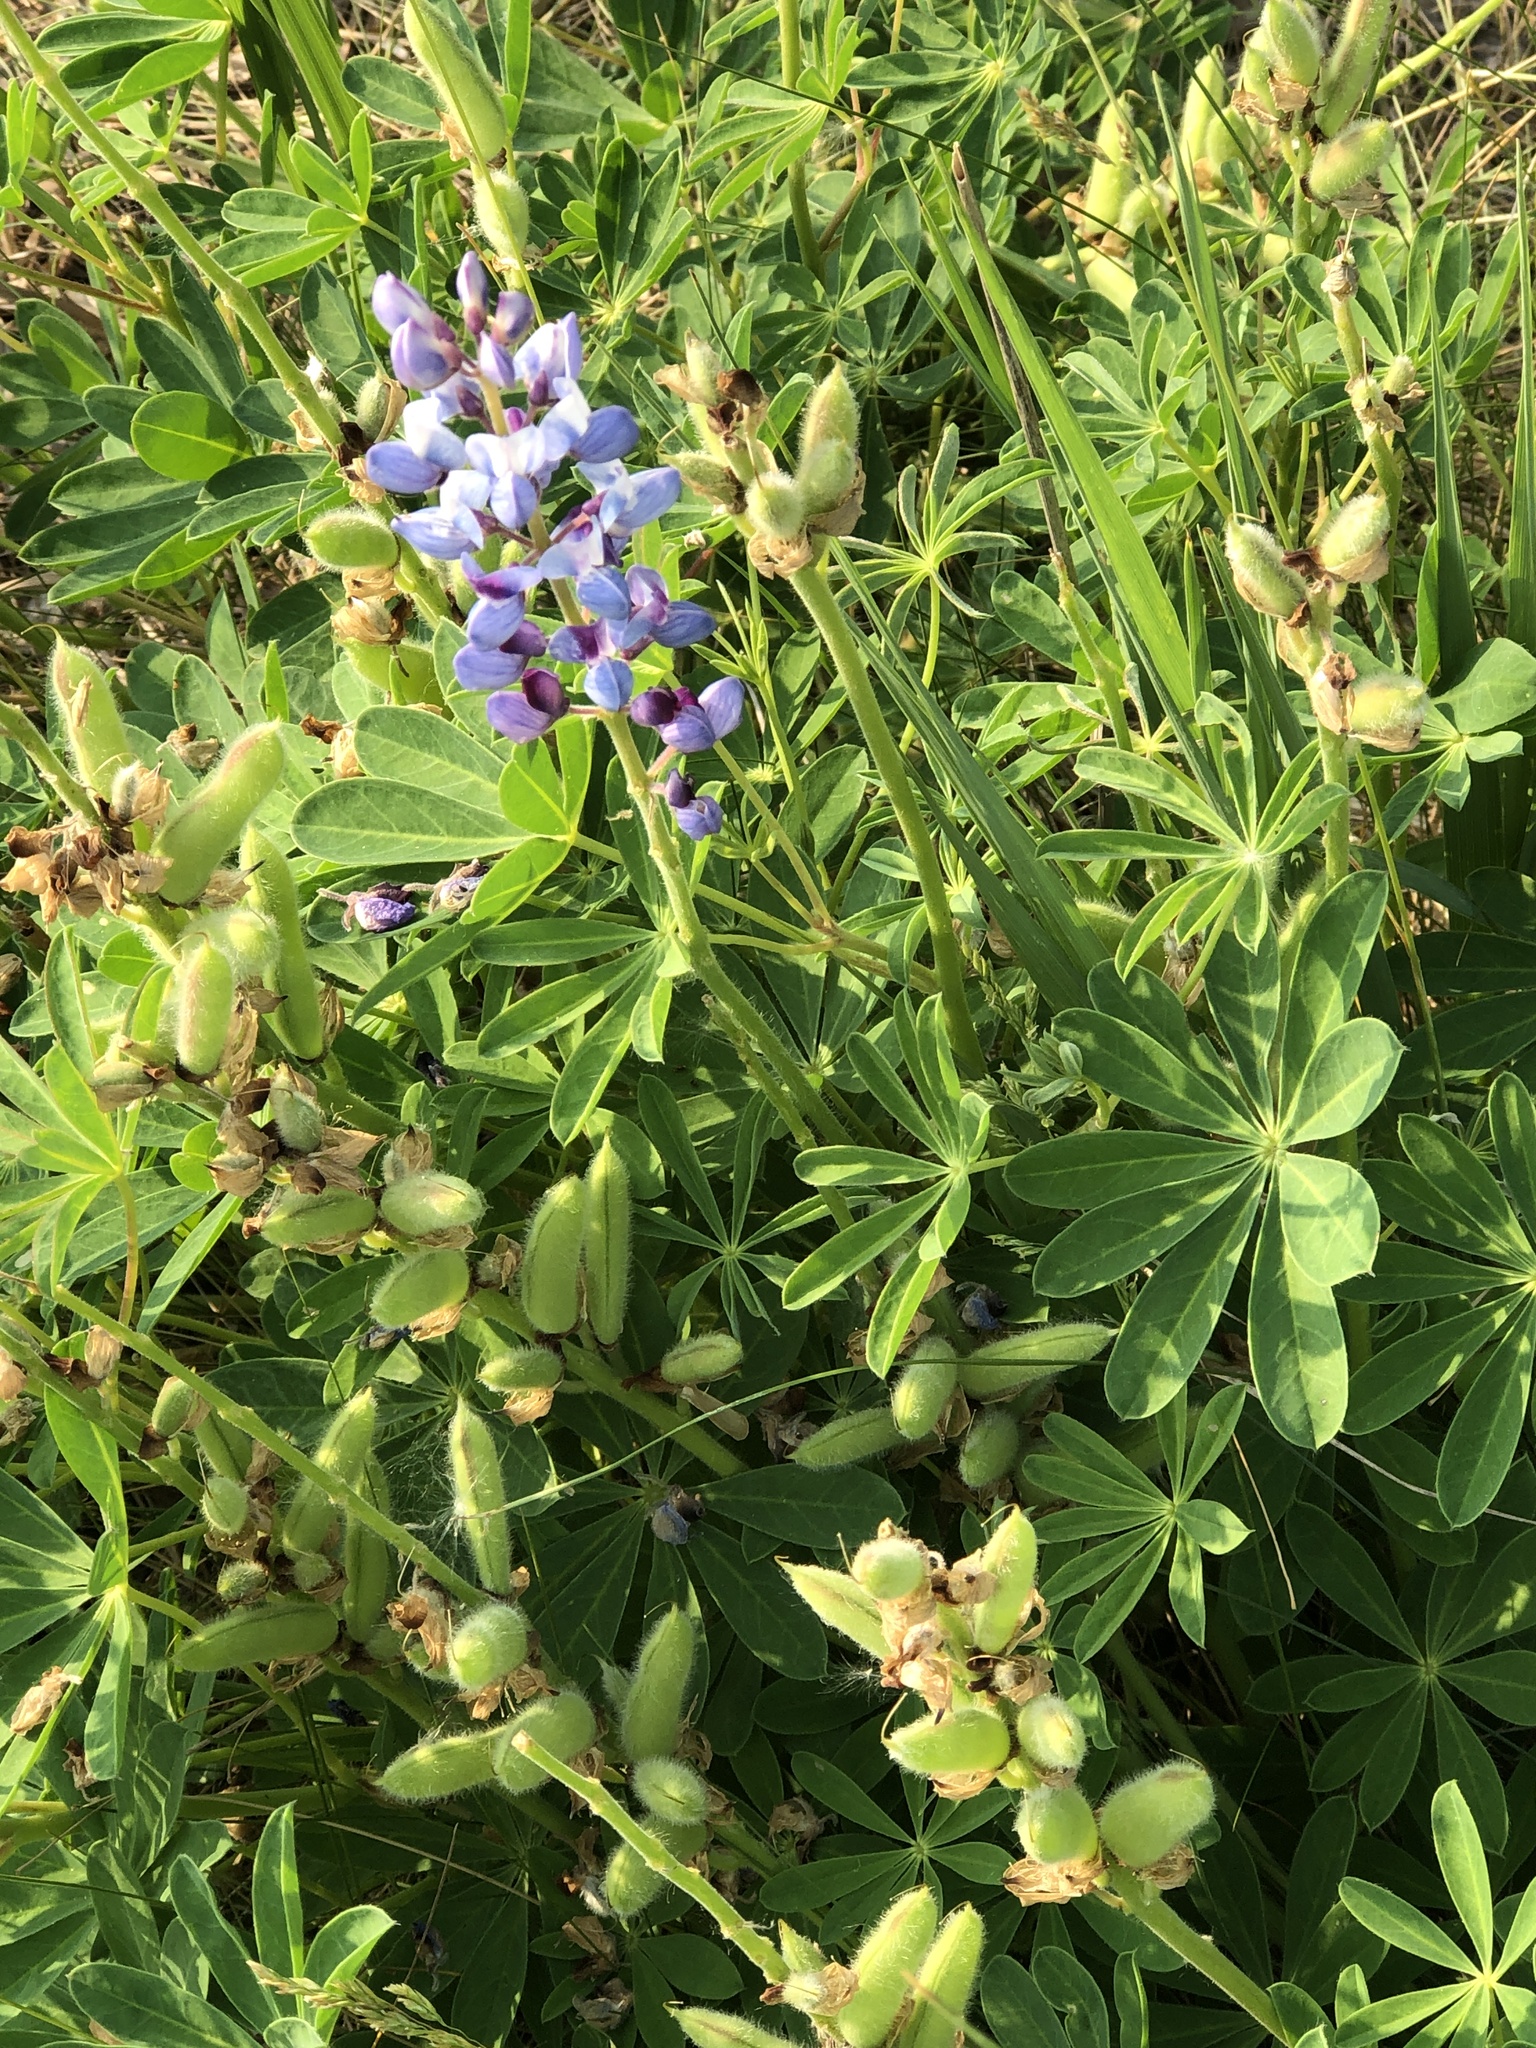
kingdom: Plantae
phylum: Tracheophyta
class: Magnoliopsida
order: Fabales
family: Fabaceae
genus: Lupinus
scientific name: Lupinus perennis
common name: Sundial lupine
